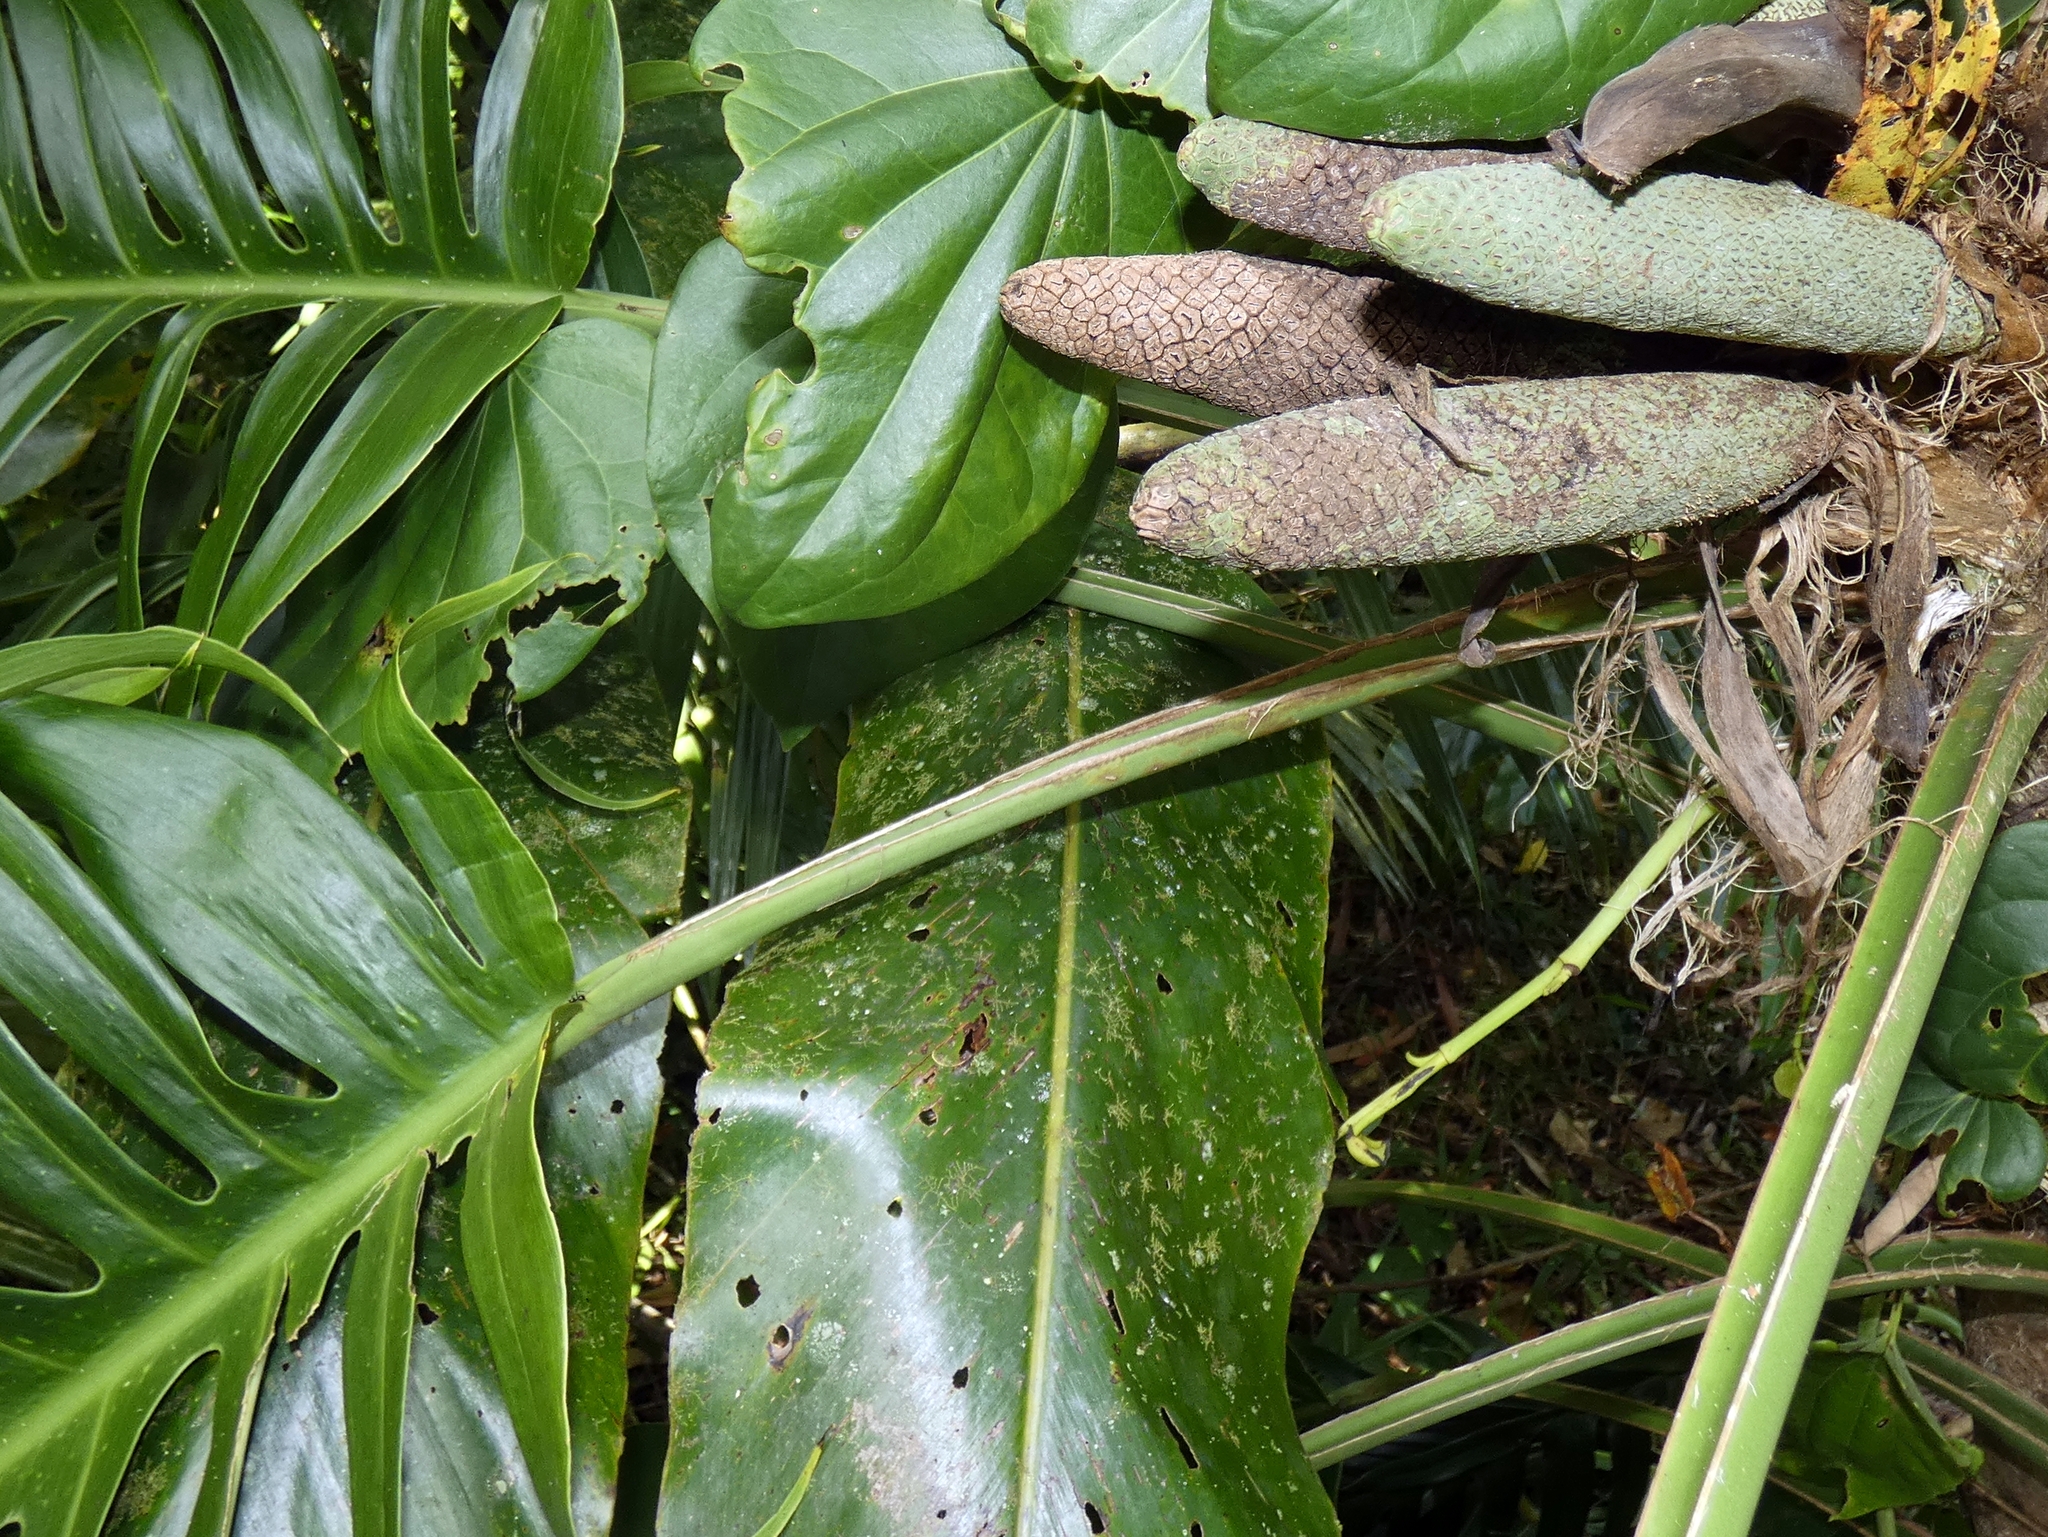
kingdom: Plantae
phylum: Tracheophyta
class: Liliopsida
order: Alismatales
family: Araceae
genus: Epipremnum
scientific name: Epipremnum pinnatum
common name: Centipede tongavine
